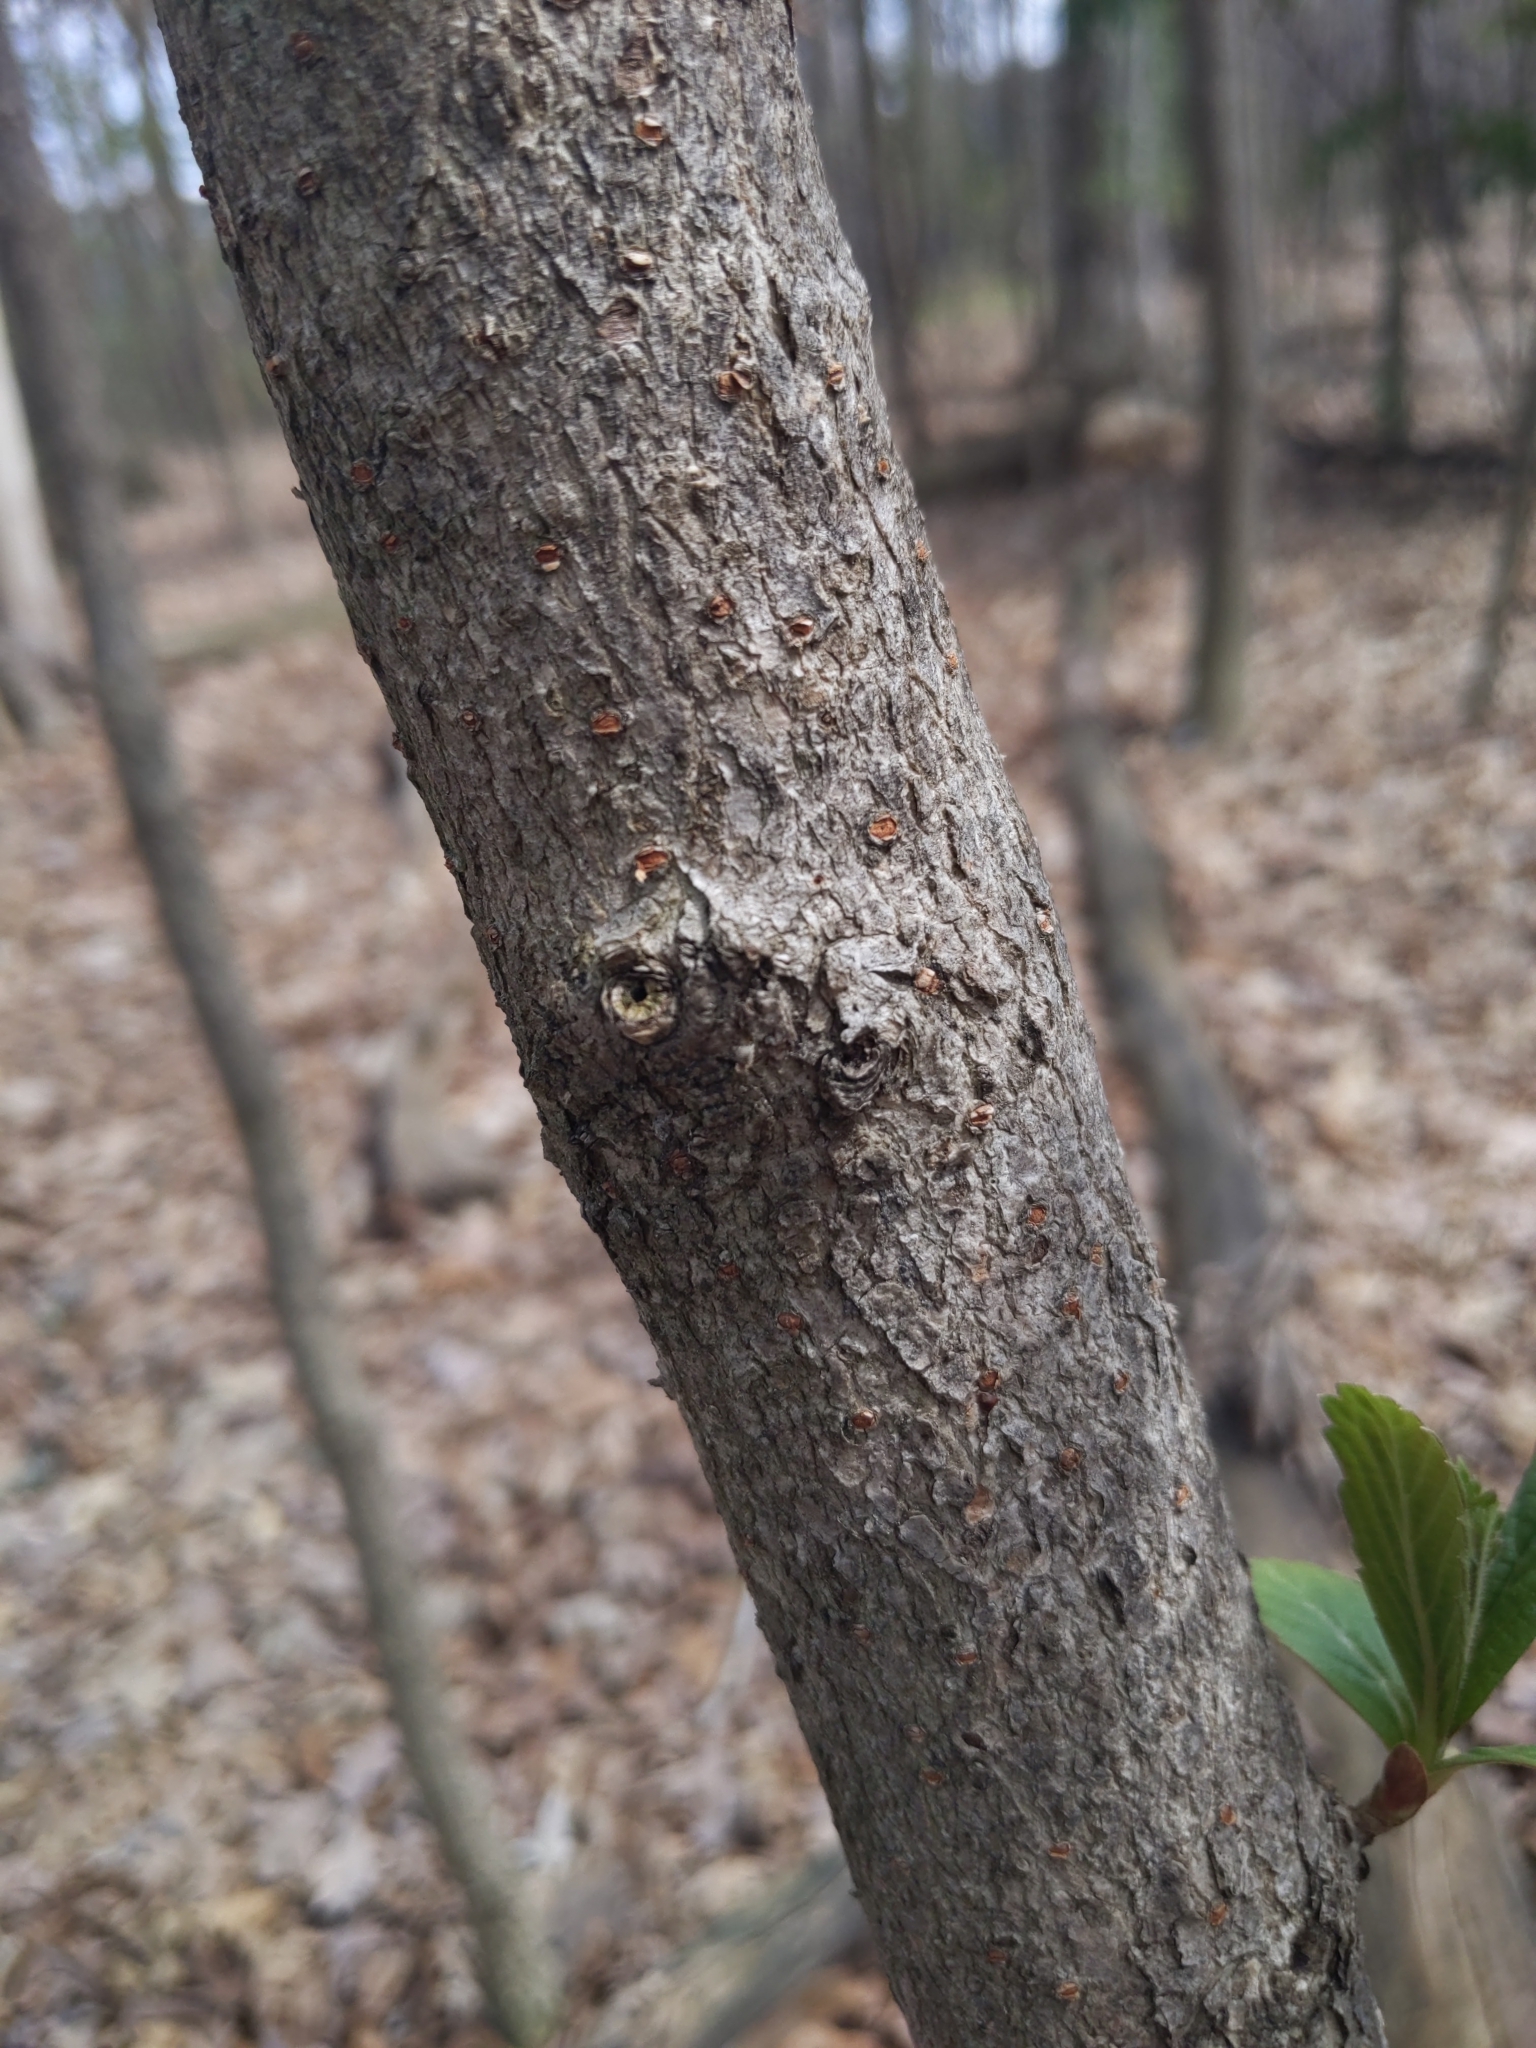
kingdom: Plantae
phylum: Tracheophyta
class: Magnoliopsida
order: Dipsacales
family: Viburnaceae
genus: Viburnum
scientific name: Viburnum sieboldii
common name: Siebold's arrowwood
